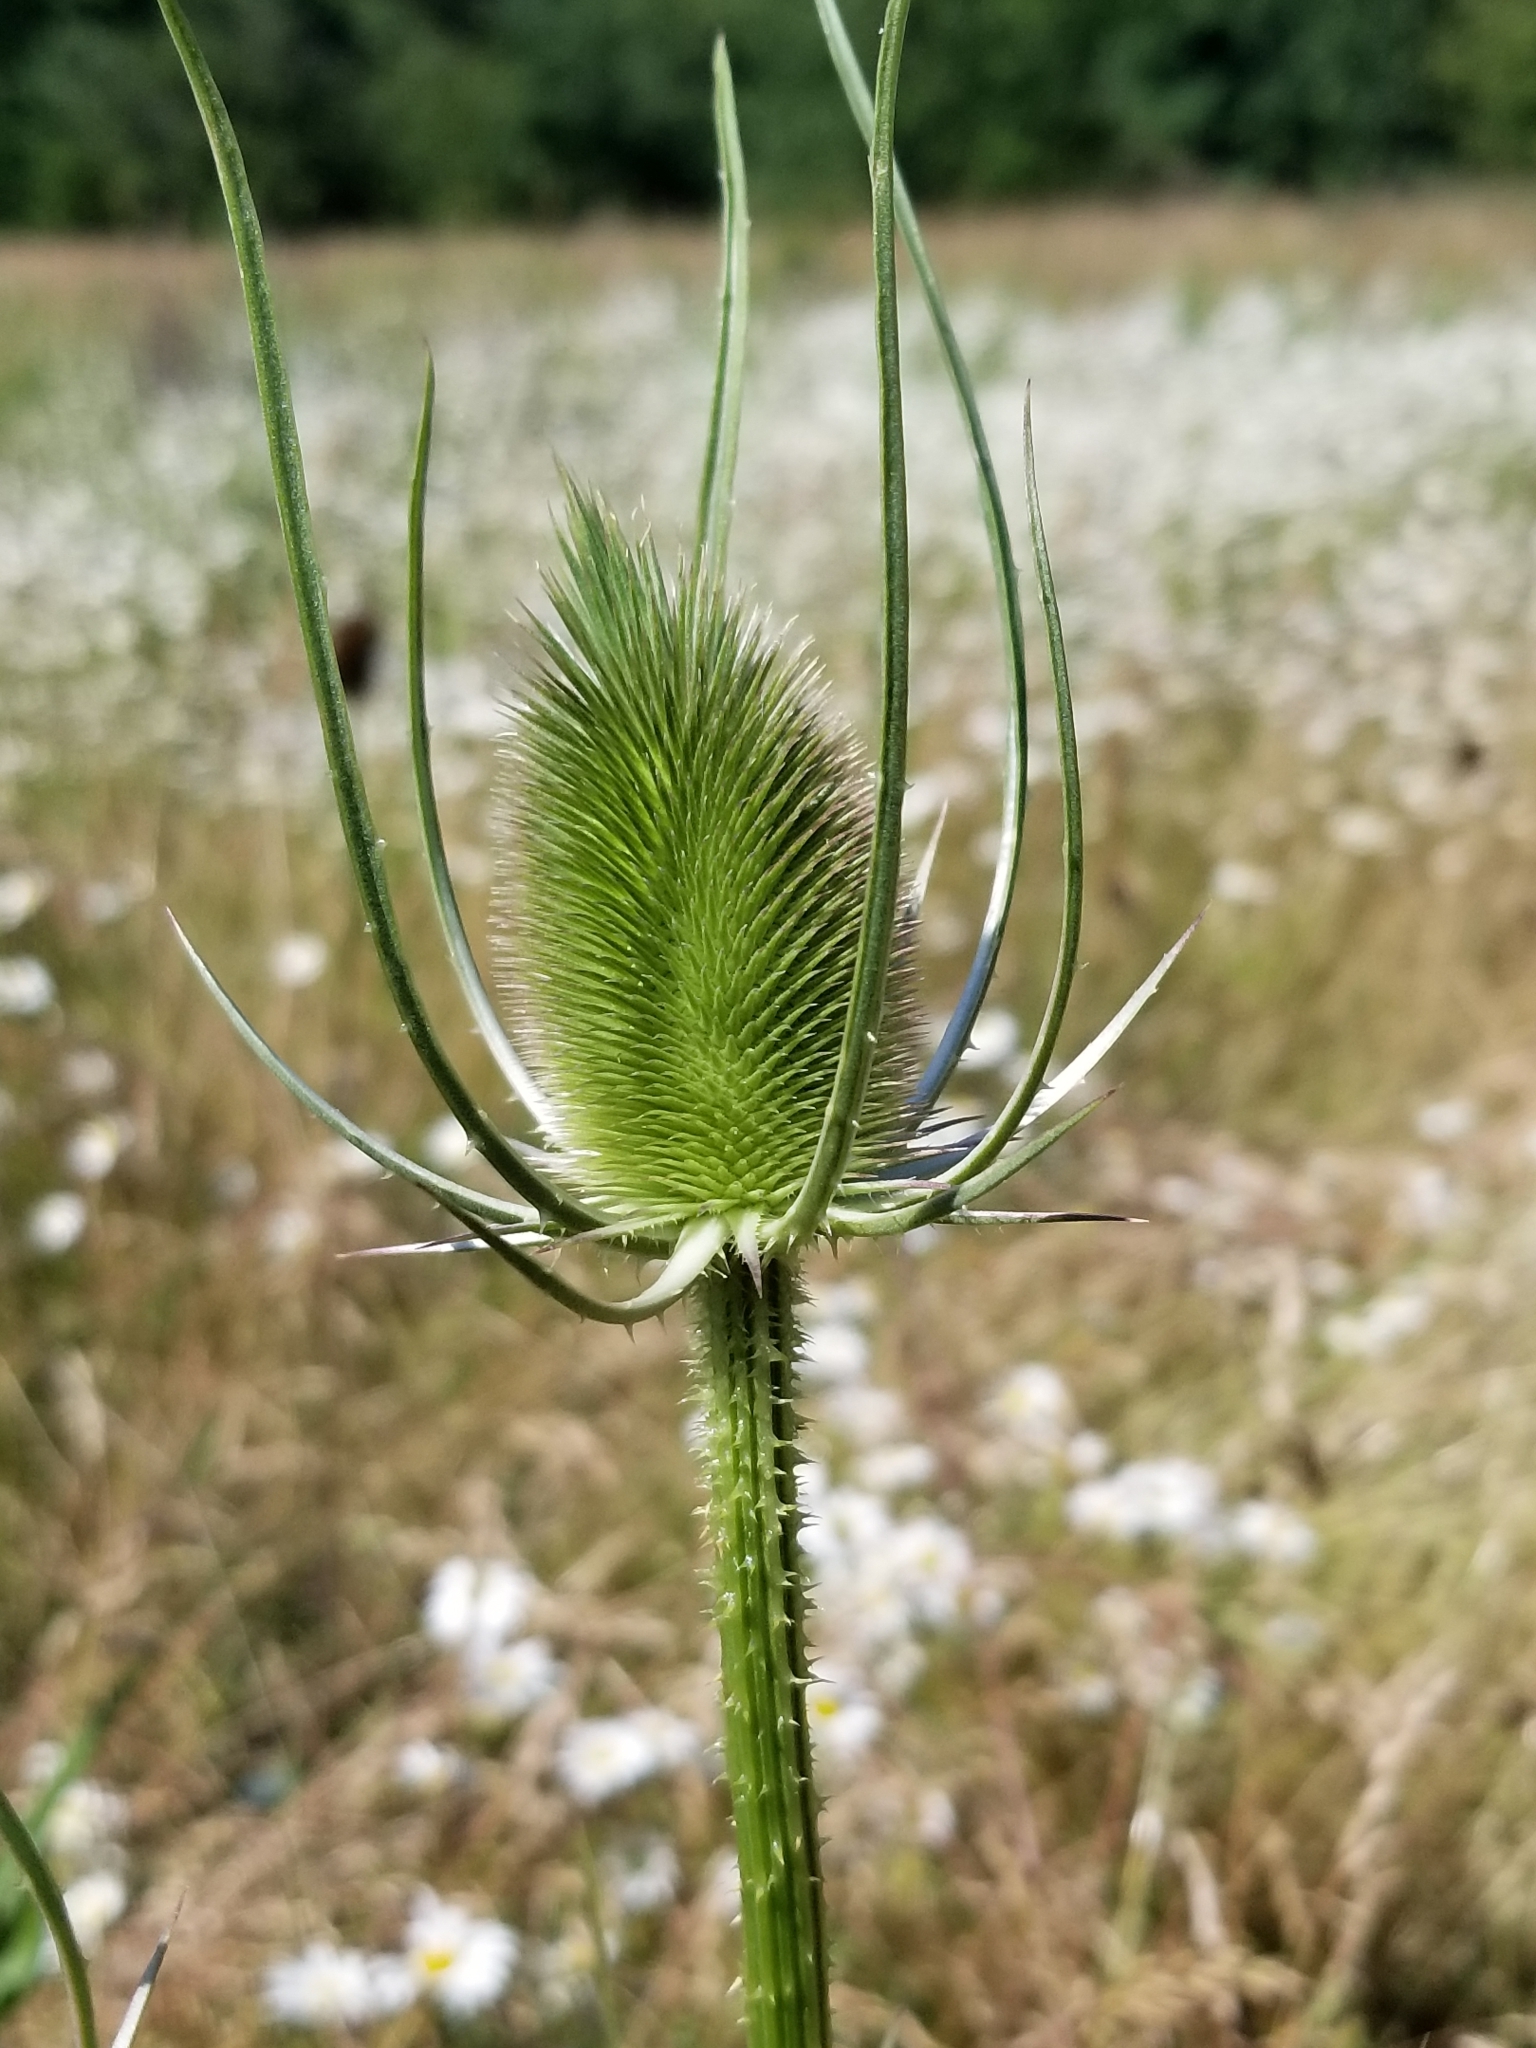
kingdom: Plantae
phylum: Tracheophyta
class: Magnoliopsida
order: Dipsacales
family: Caprifoliaceae
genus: Dipsacus
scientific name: Dipsacus fullonum
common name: Teasel
